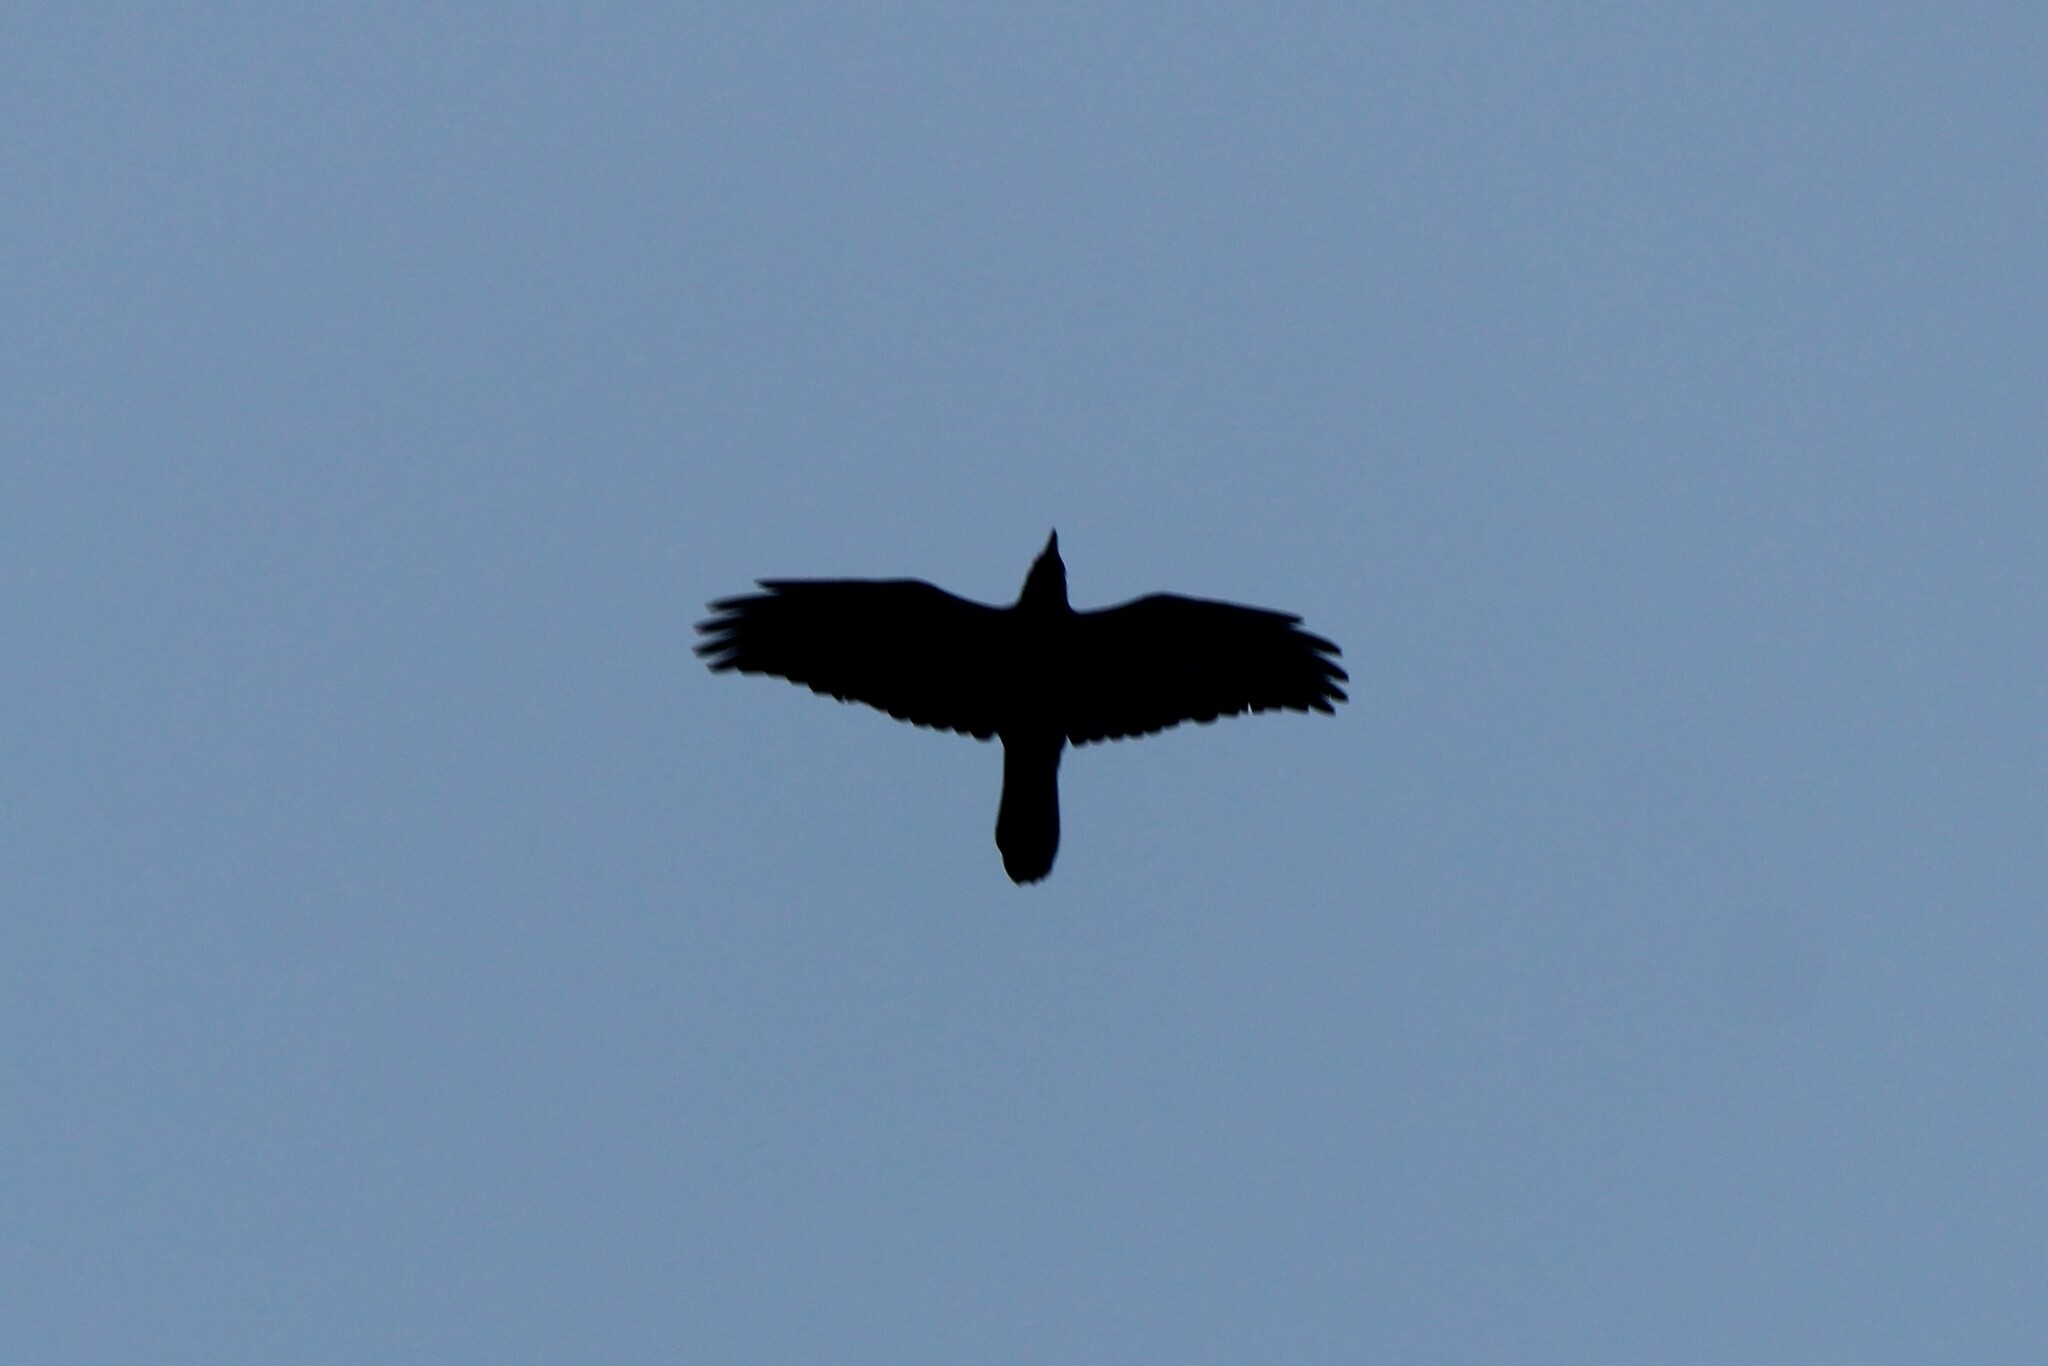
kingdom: Animalia
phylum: Chordata
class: Aves
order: Passeriformes
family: Corvidae
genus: Corvus
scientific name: Corvus corax
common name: Common raven
